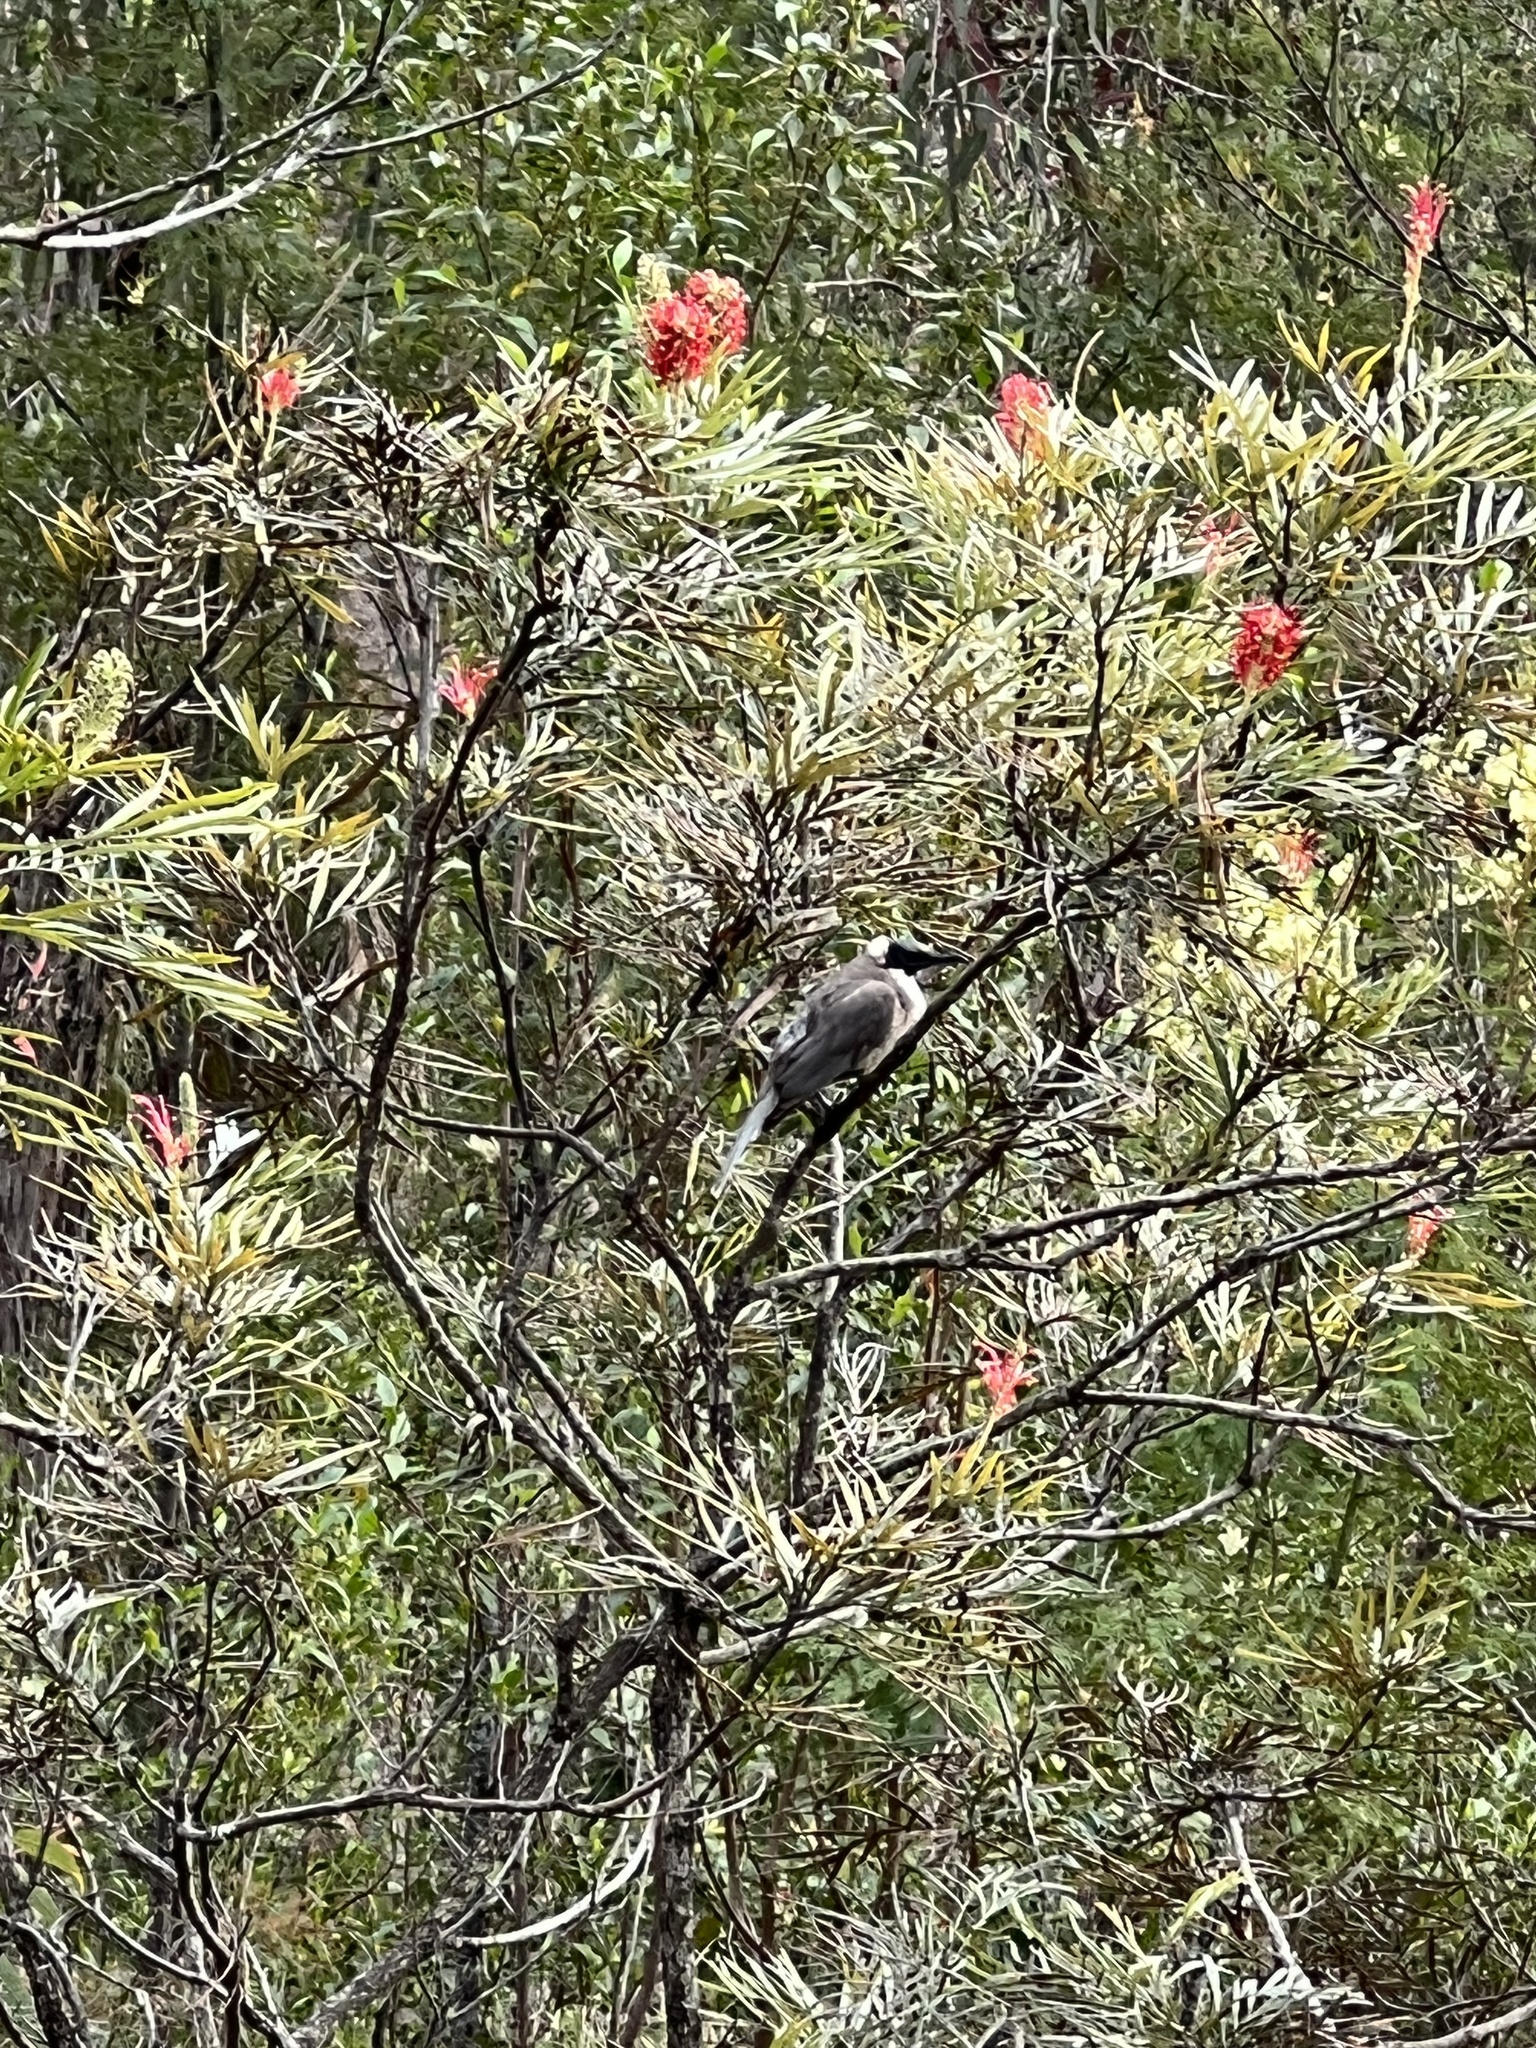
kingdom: Animalia
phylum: Chordata
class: Aves
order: Passeriformes
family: Meliphagidae
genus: Philemon
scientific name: Philemon corniculatus
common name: Noisy friarbird
